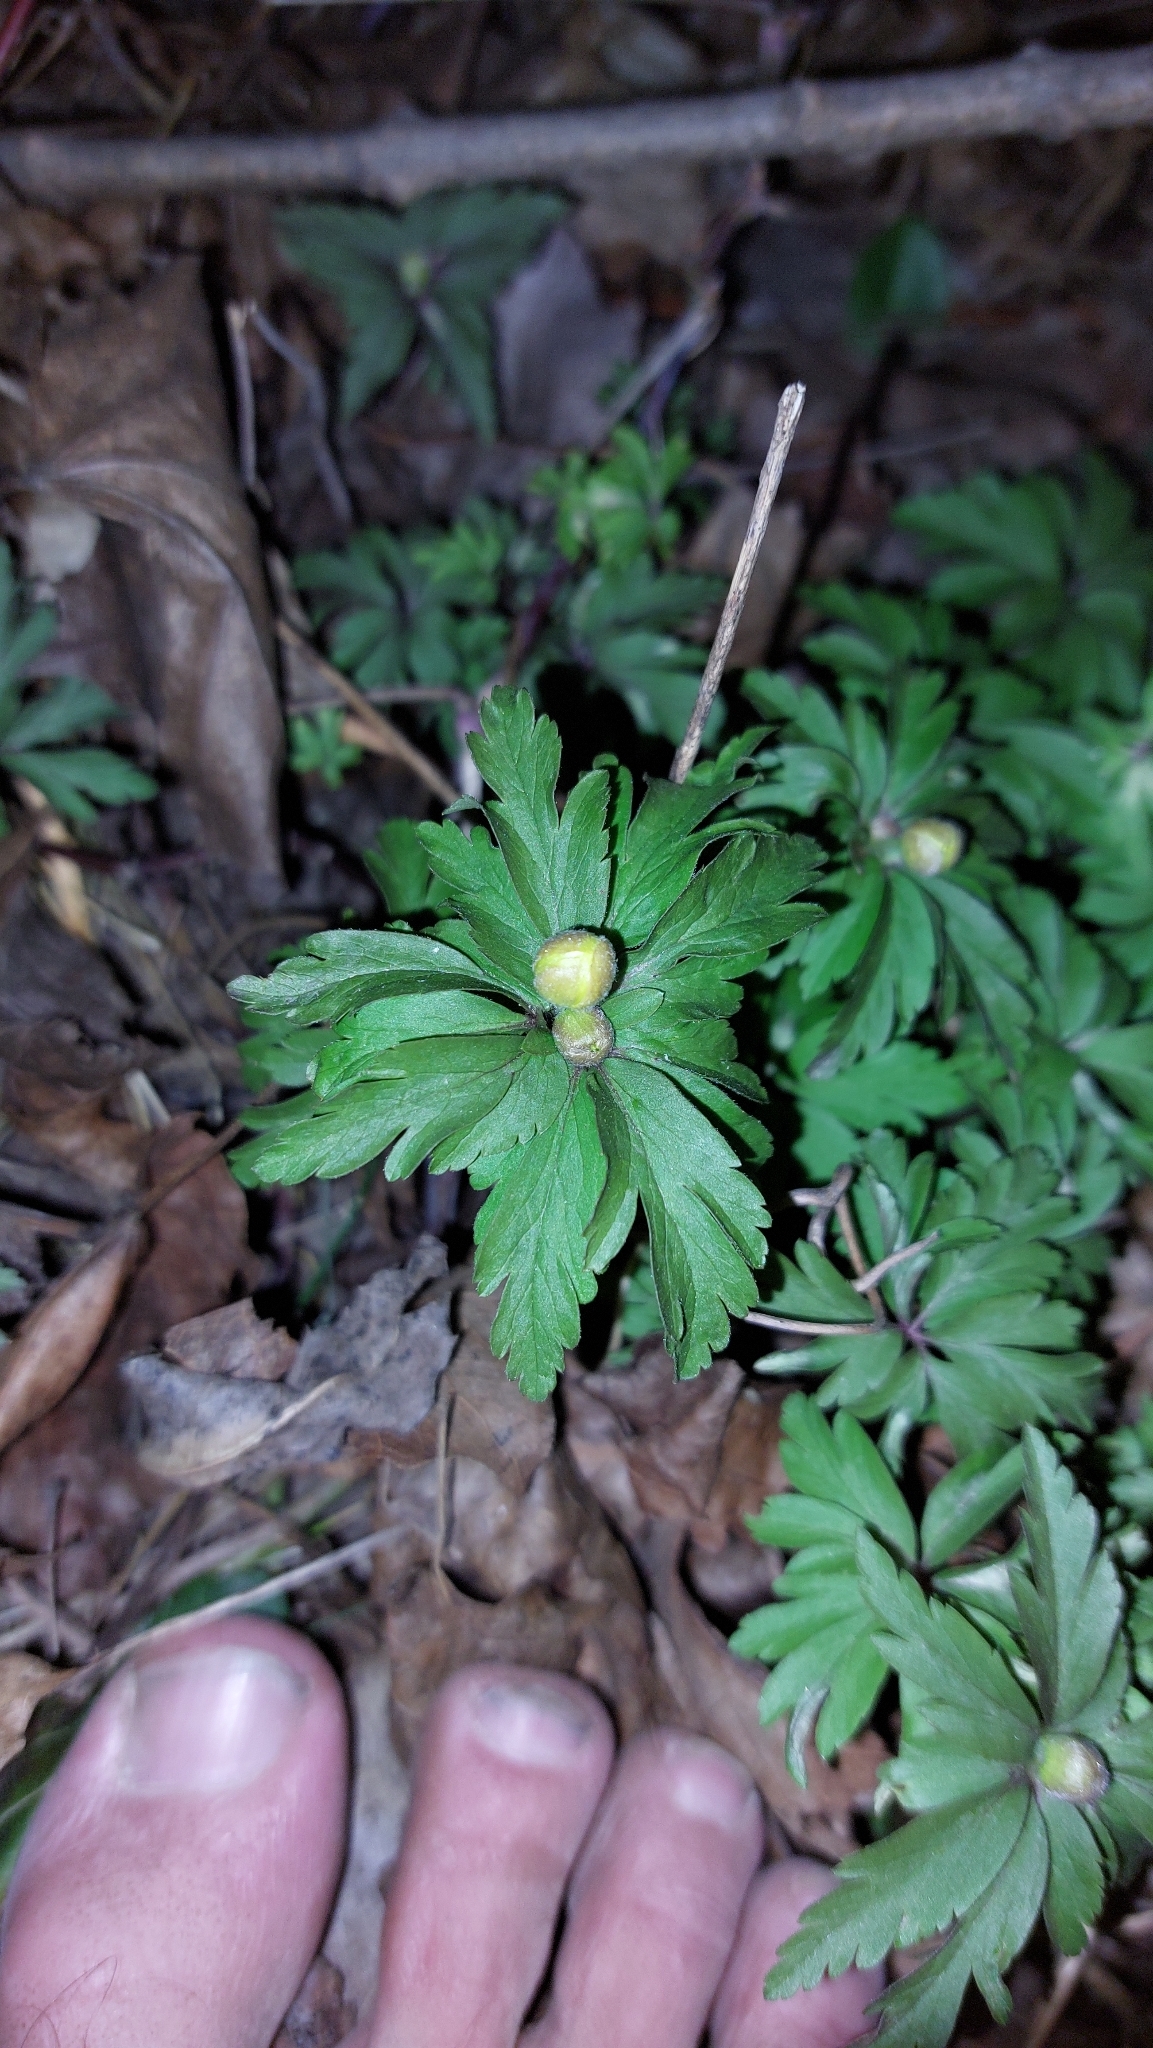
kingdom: Plantae
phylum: Tracheophyta
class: Magnoliopsida
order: Ranunculales
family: Ranunculaceae
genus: Anemone
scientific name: Anemone ranunculoides
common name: Yellow anemone
